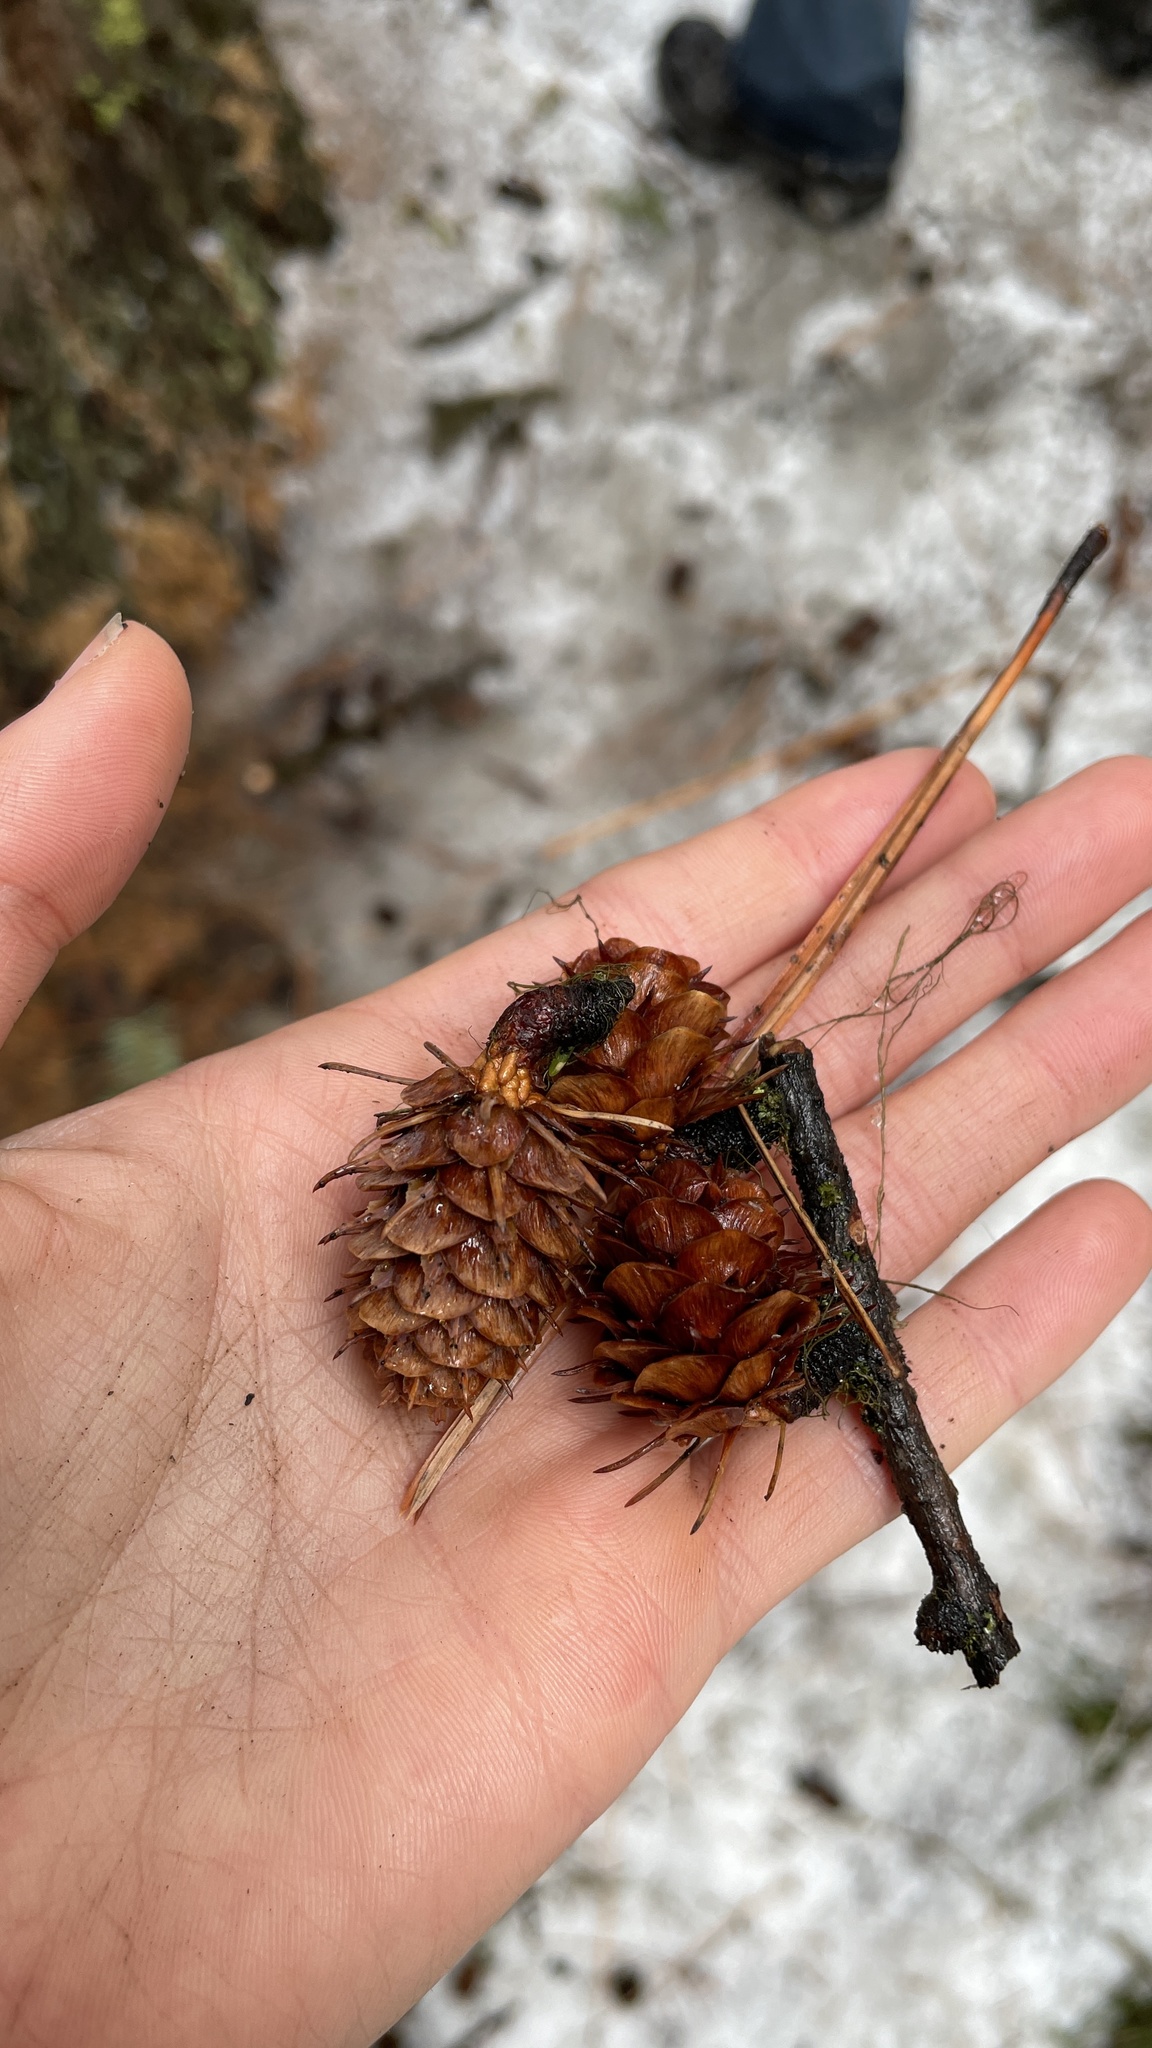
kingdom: Plantae
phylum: Tracheophyta
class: Pinopsida
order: Pinales
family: Pinaceae
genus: Larix
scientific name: Larix occidentalis
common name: Western larch
